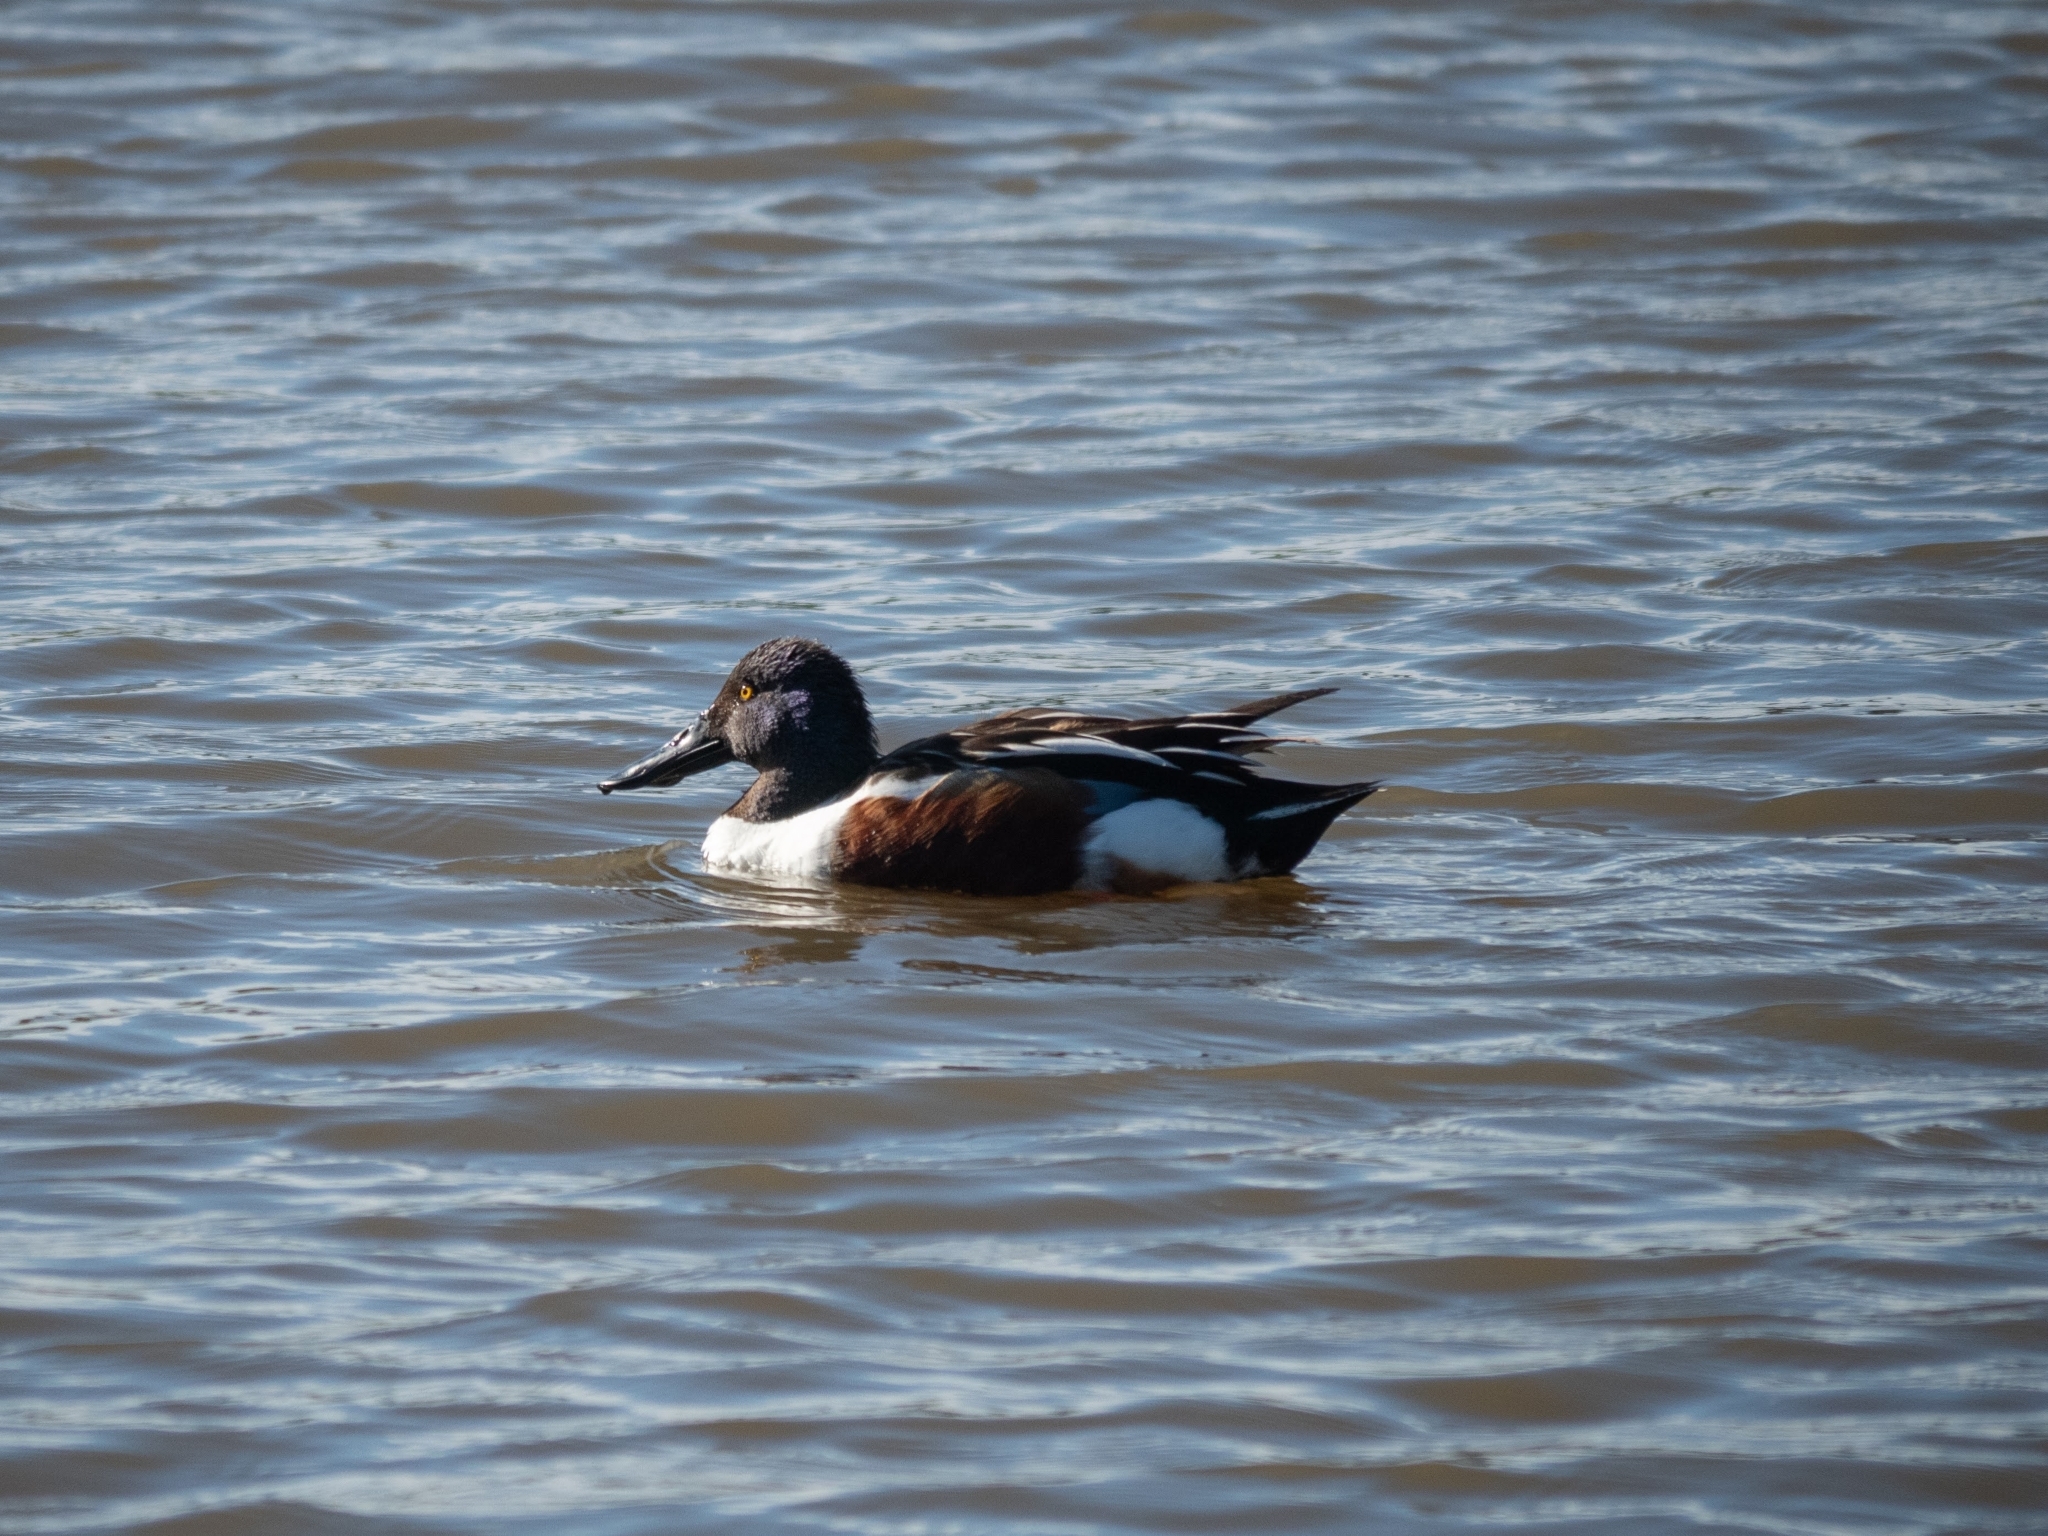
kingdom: Animalia
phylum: Chordata
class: Aves
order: Anseriformes
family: Anatidae
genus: Spatula
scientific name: Spatula clypeata
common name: Northern shoveler
